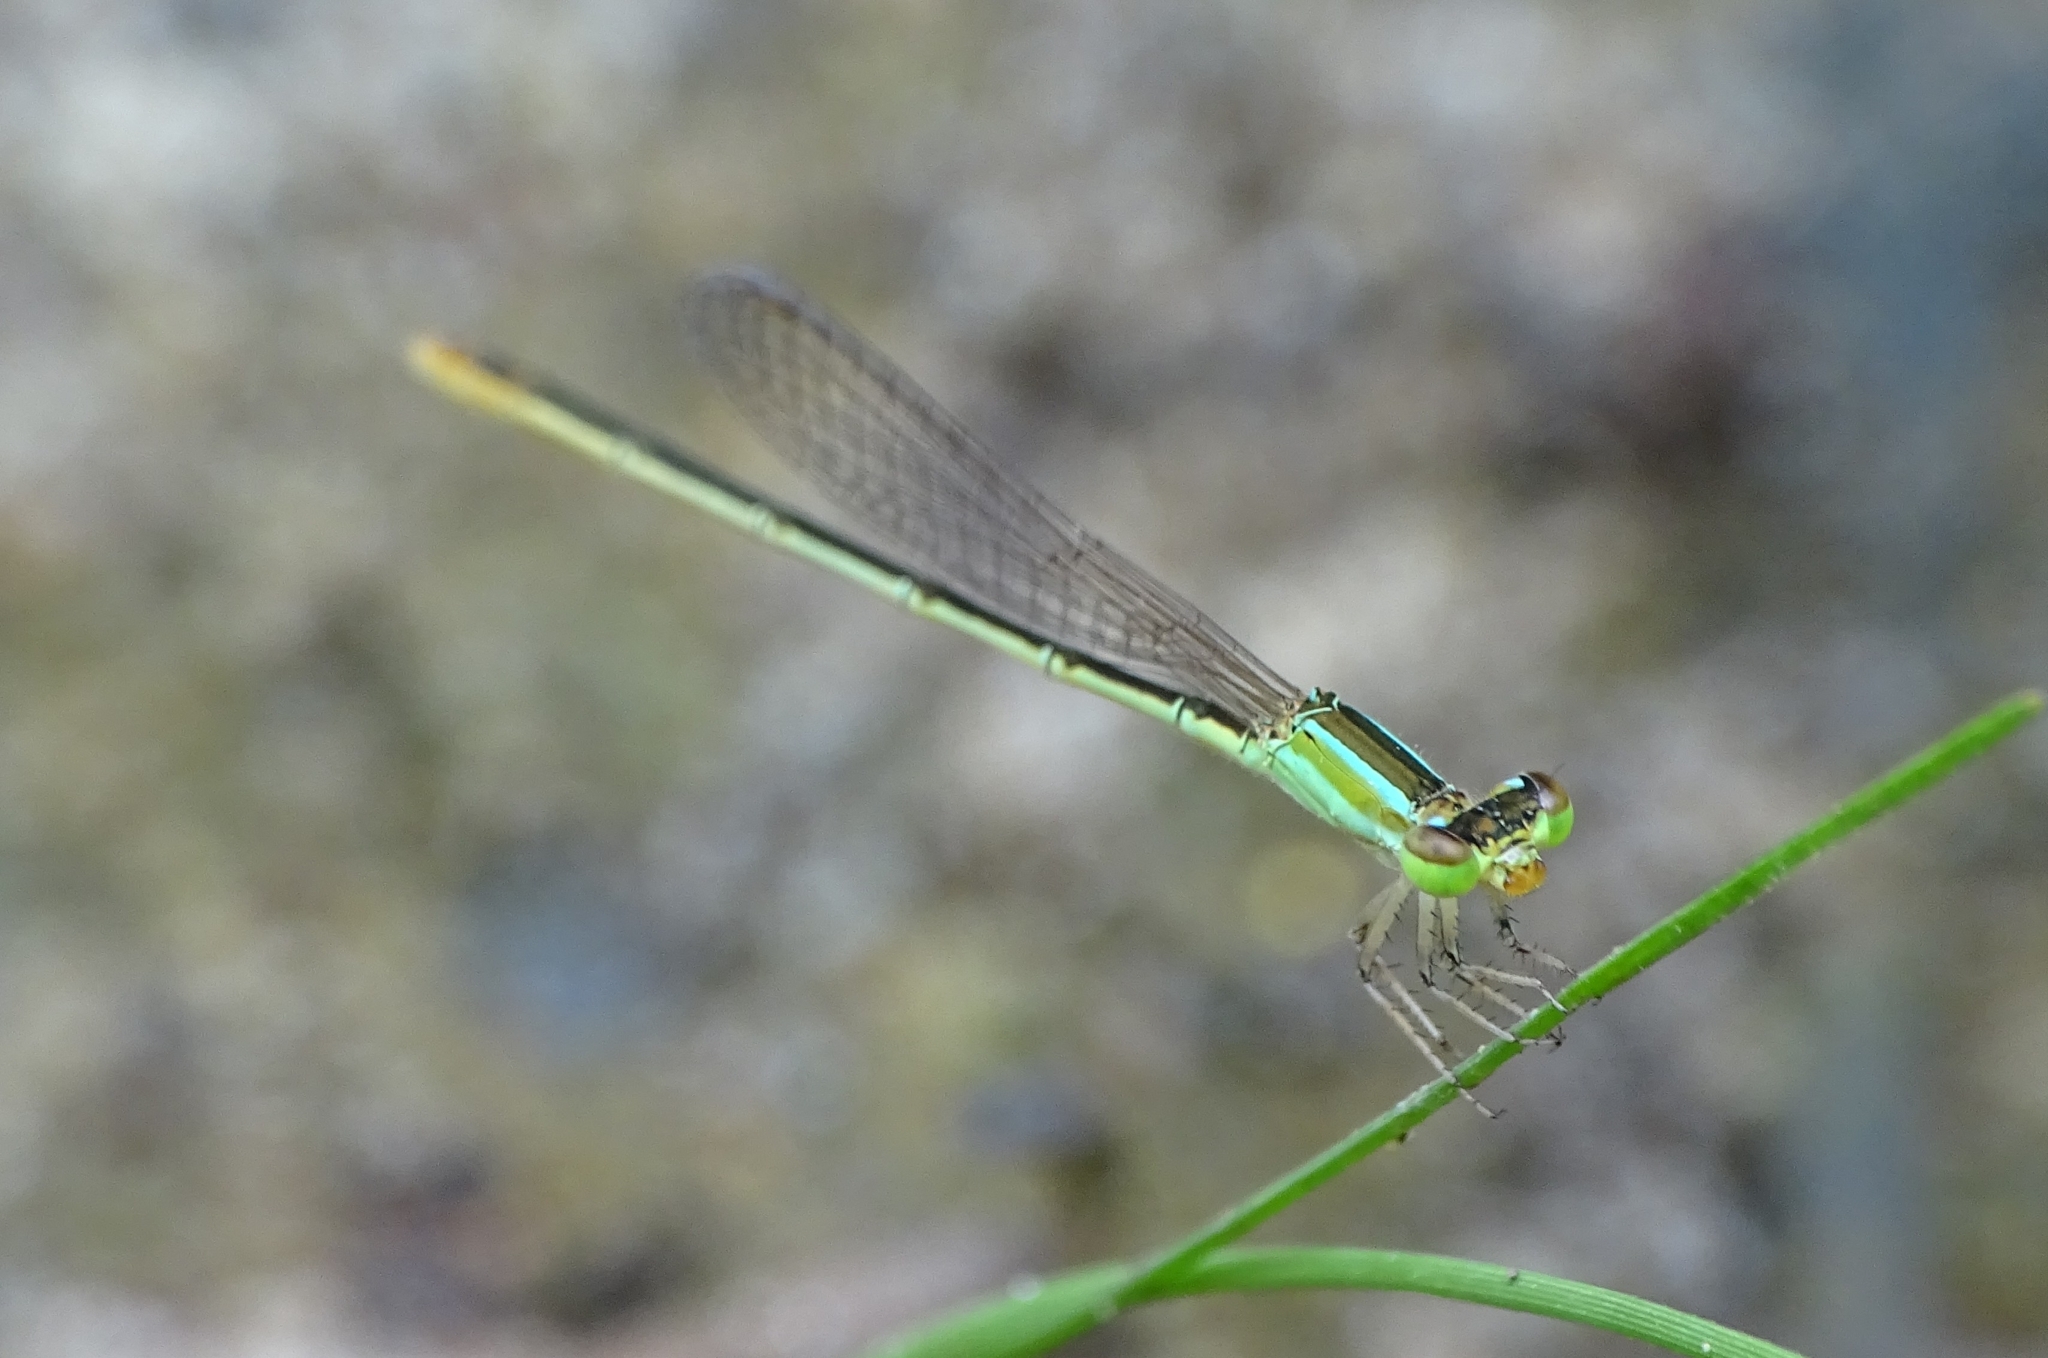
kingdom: Animalia
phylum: Arthropoda
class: Insecta
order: Odonata
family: Coenagrionidae
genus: Agriocnemis
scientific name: Agriocnemis pygmaea
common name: Pygmy wisp
